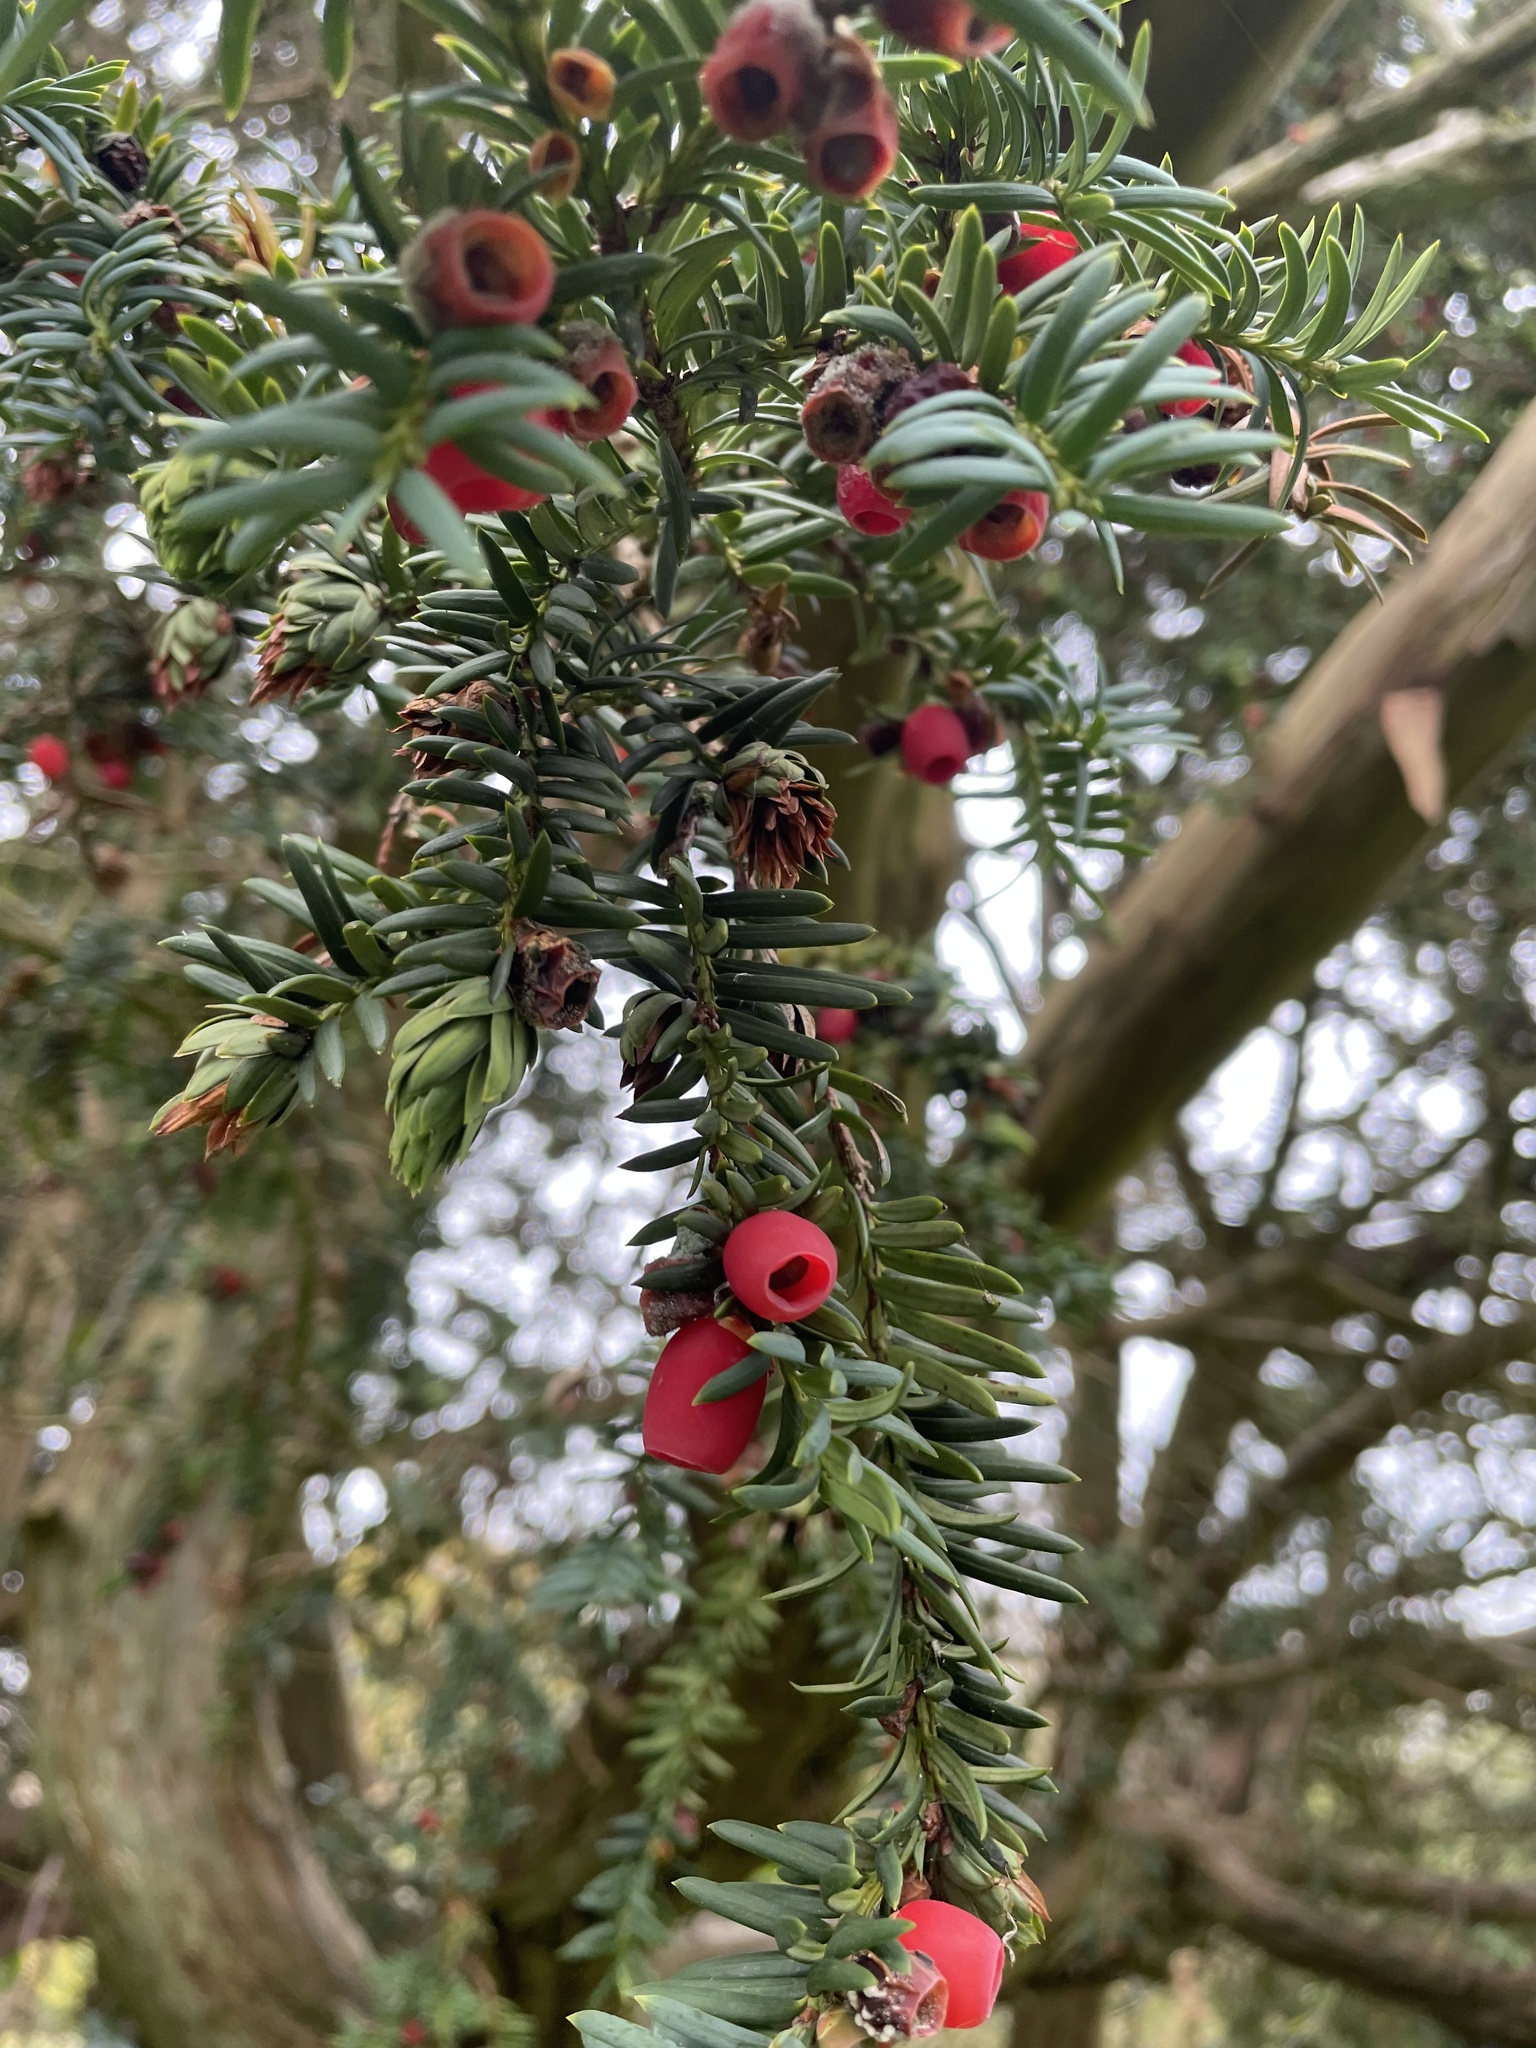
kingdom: Plantae
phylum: Tracheophyta
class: Pinopsida
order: Pinales
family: Taxaceae
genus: Taxus
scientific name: Taxus baccata
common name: Yew
